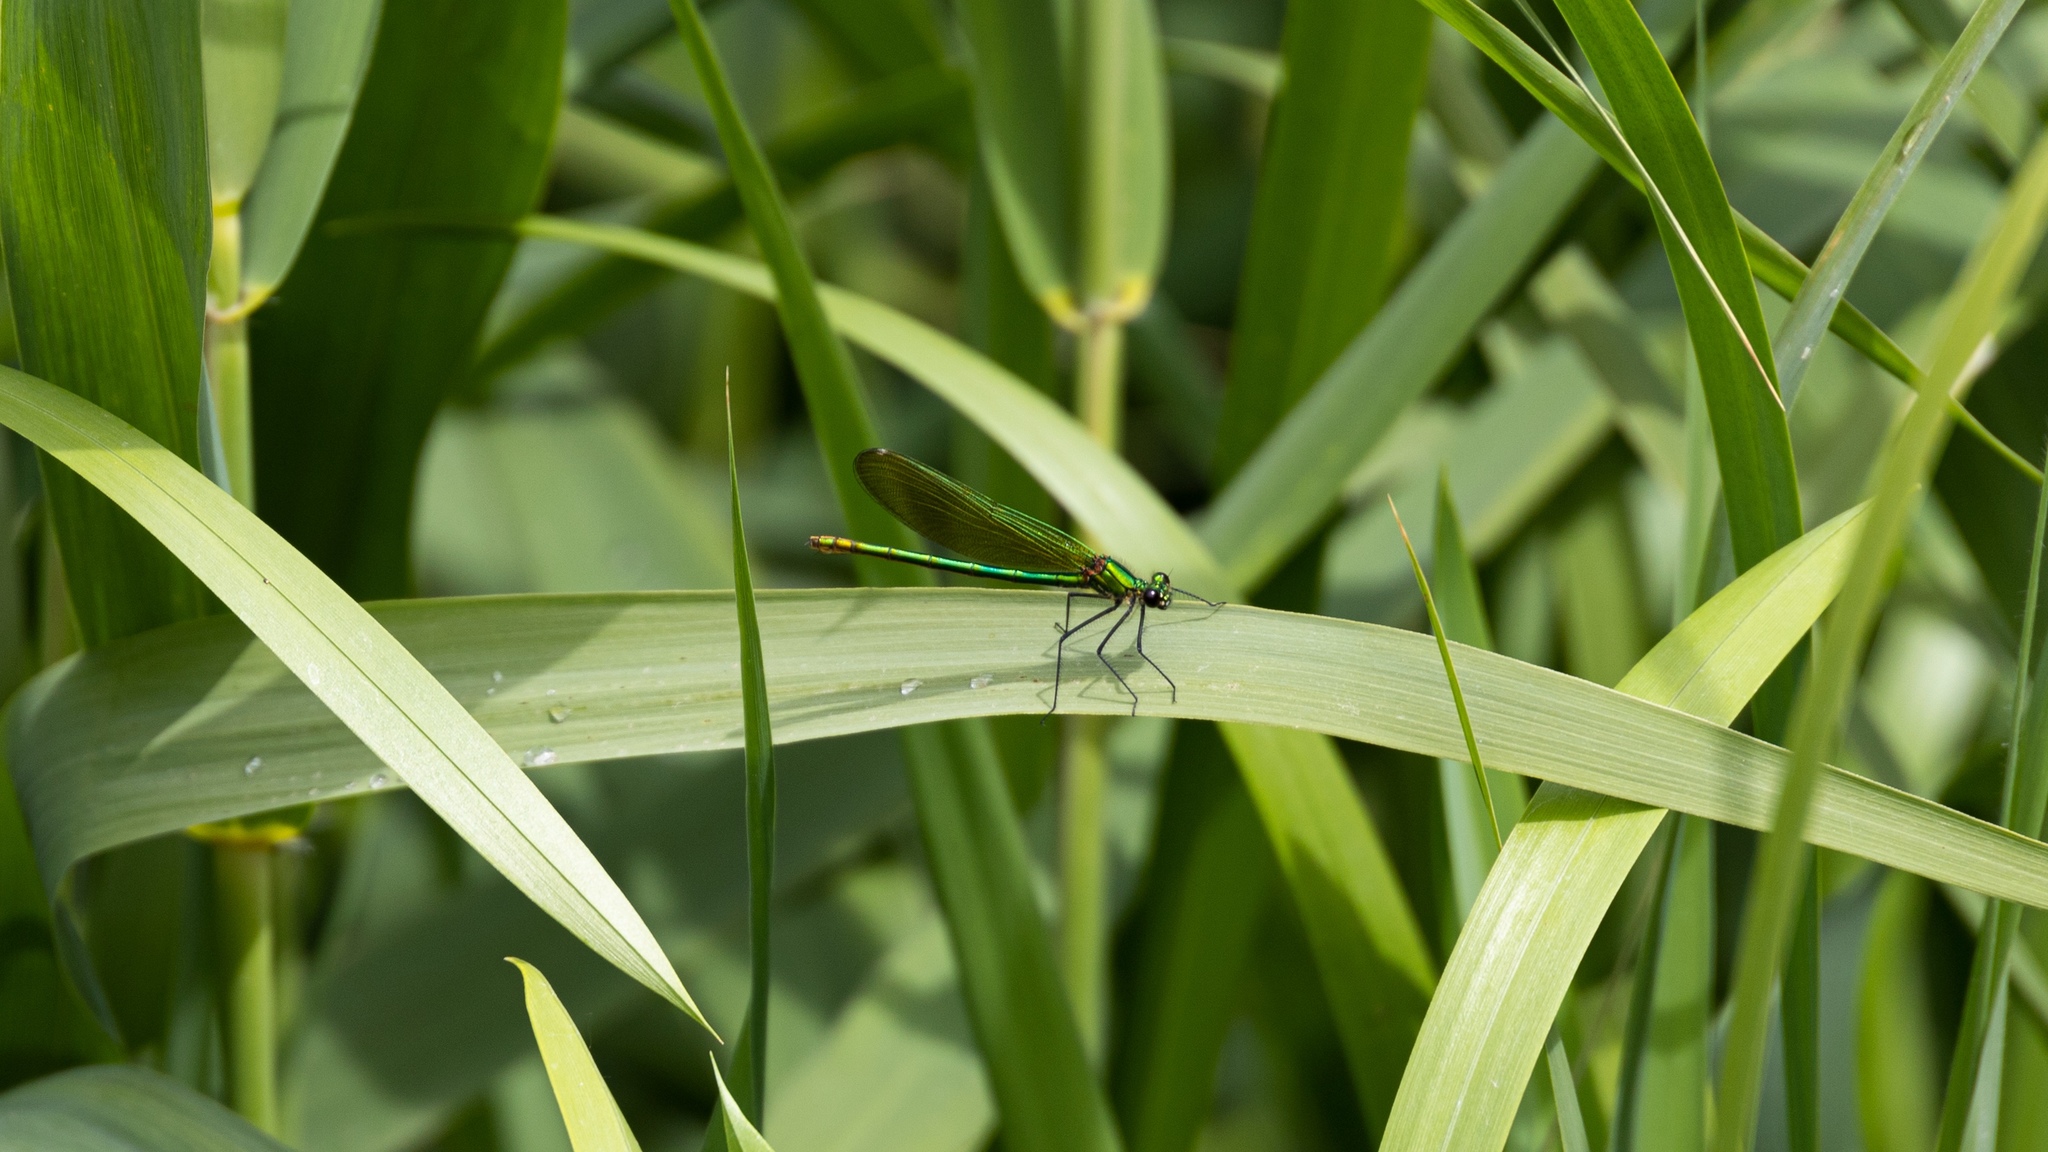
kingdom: Animalia
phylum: Arthropoda
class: Insecta
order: Odonata
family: Calopterygidae
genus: Calopteryx
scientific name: Calopteryx splendens
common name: Banded demoiselle
